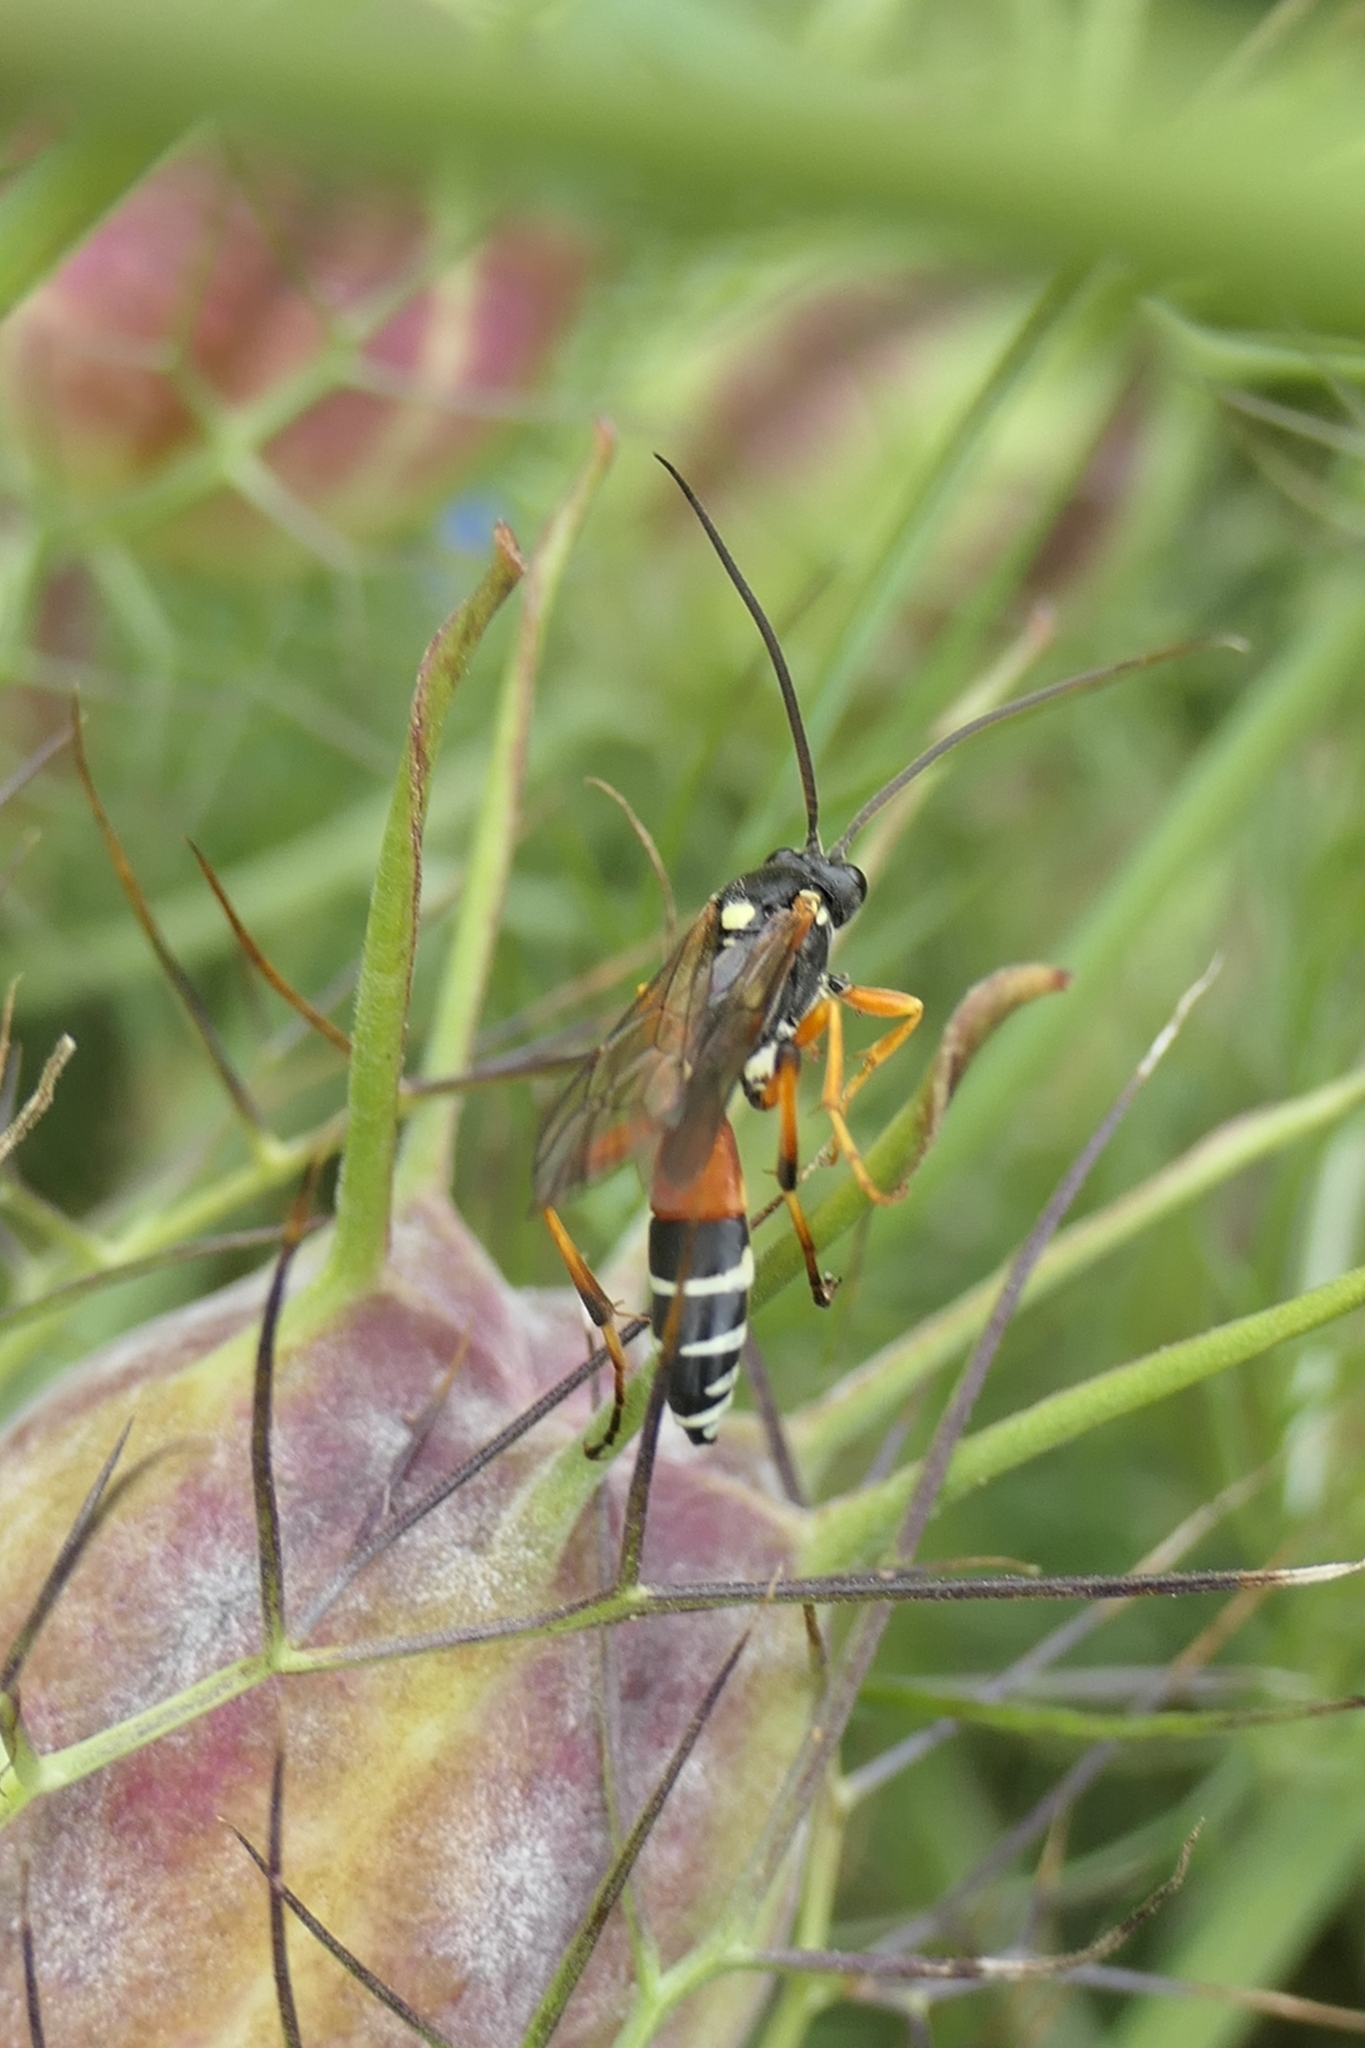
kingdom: Animalia
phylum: Arthropoda
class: Insecta
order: Hymenoptera
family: Ichneumonidae
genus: Ichneumon
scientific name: Ichneumon promissorius
